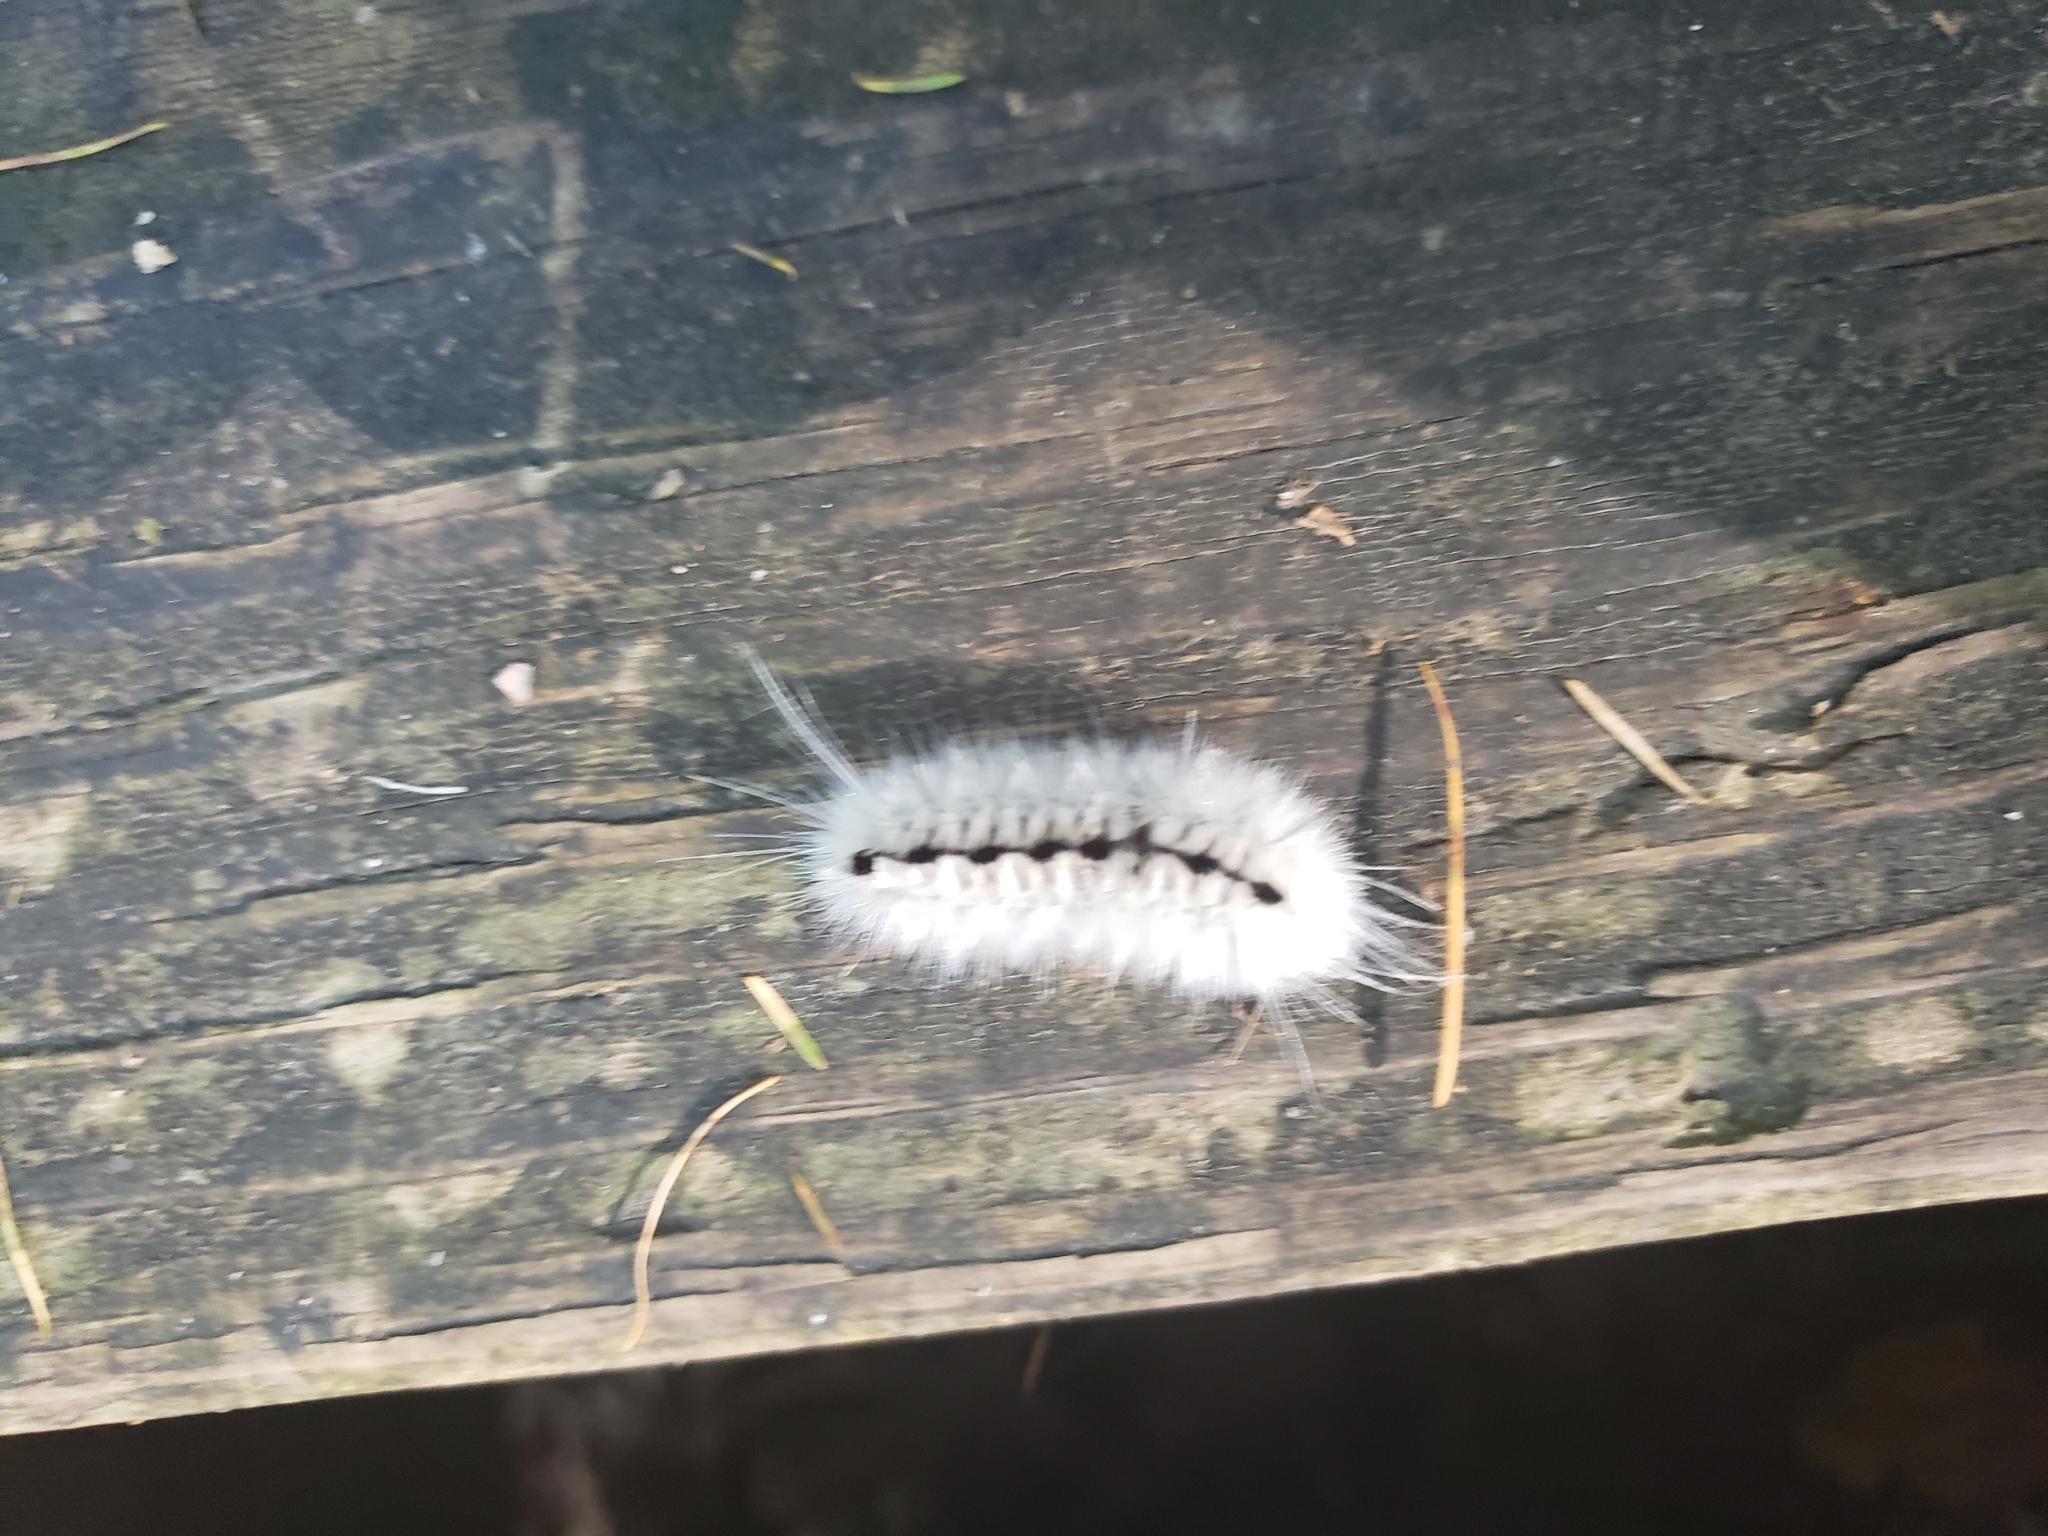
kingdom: Animalia
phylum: Arthropoda
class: Insecta
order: Lepidoptera
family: Erebidae
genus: Lophocampa
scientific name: Lophocampa caryae
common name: Hickory tussock moth
